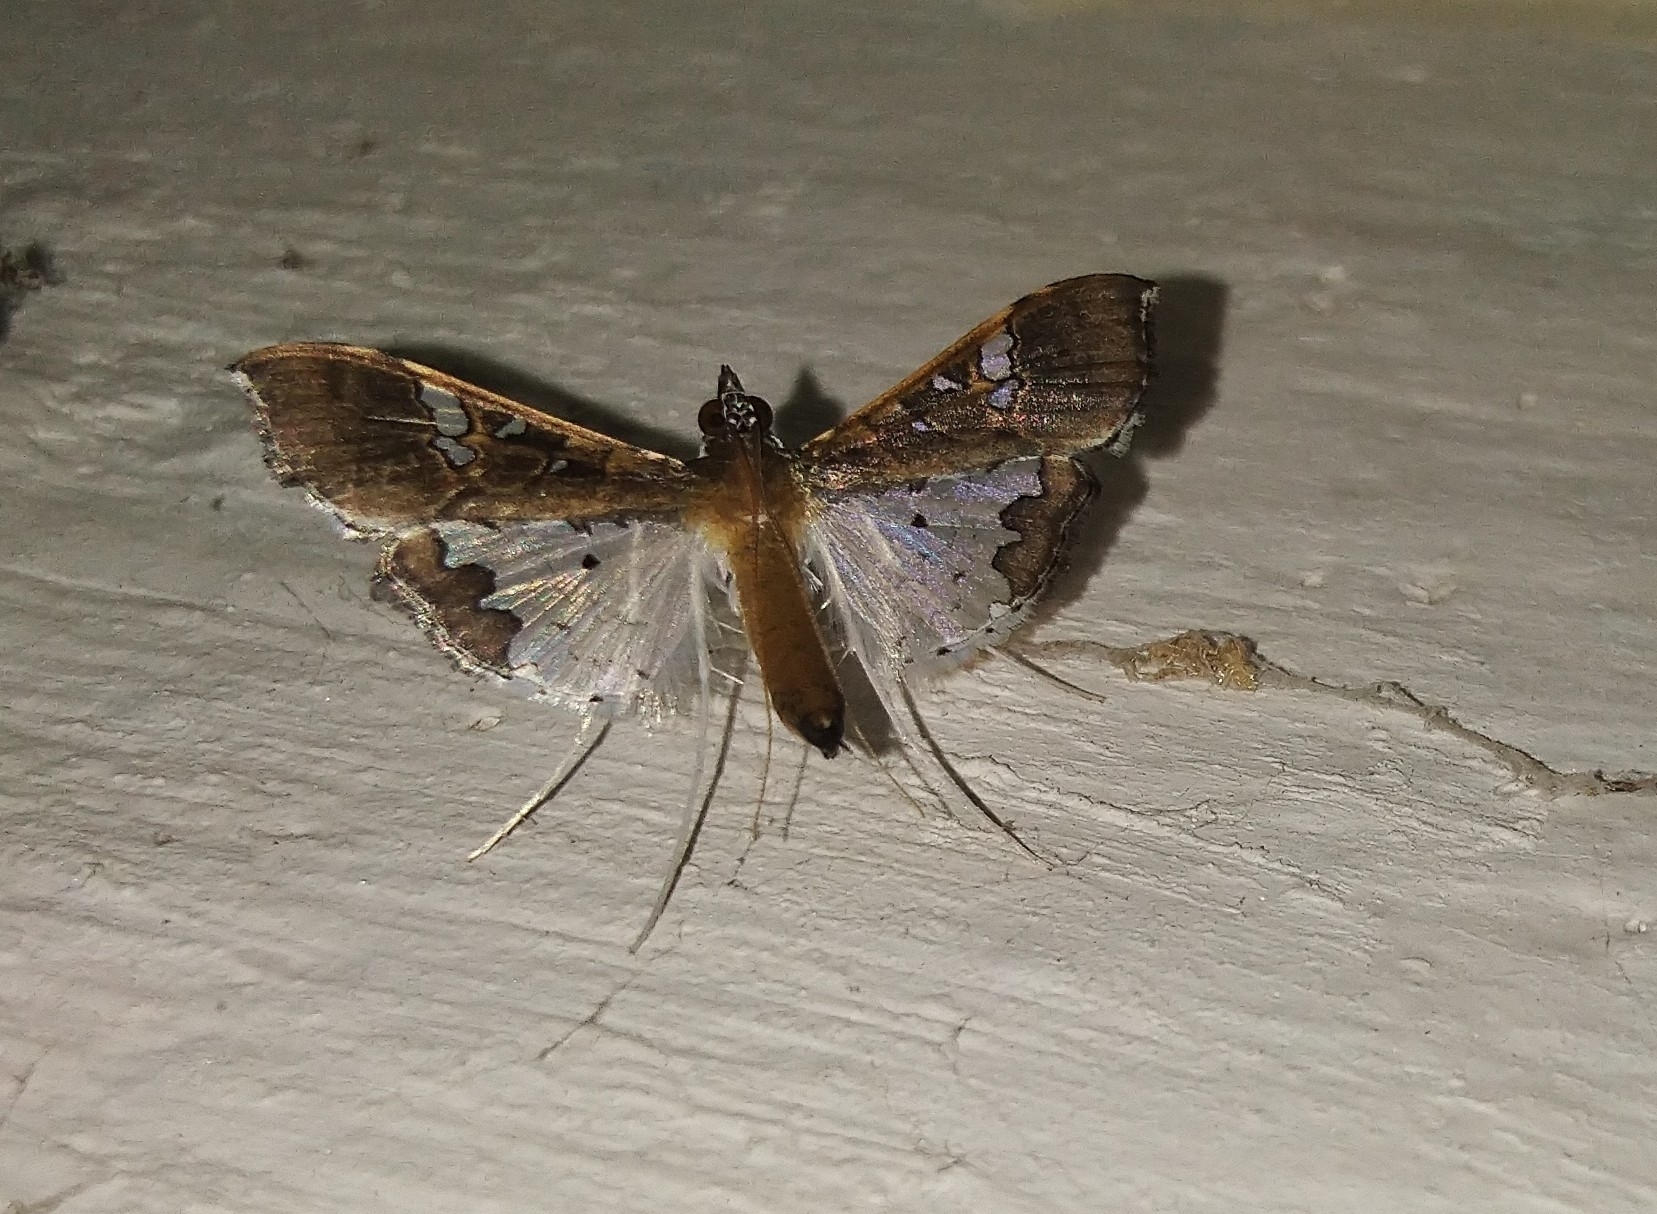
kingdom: Animalia
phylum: Arthropoda
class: Insecta
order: Lepidoptera
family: Crambidae
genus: Maruca
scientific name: Maruca vitrata
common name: Maruca pod borer
